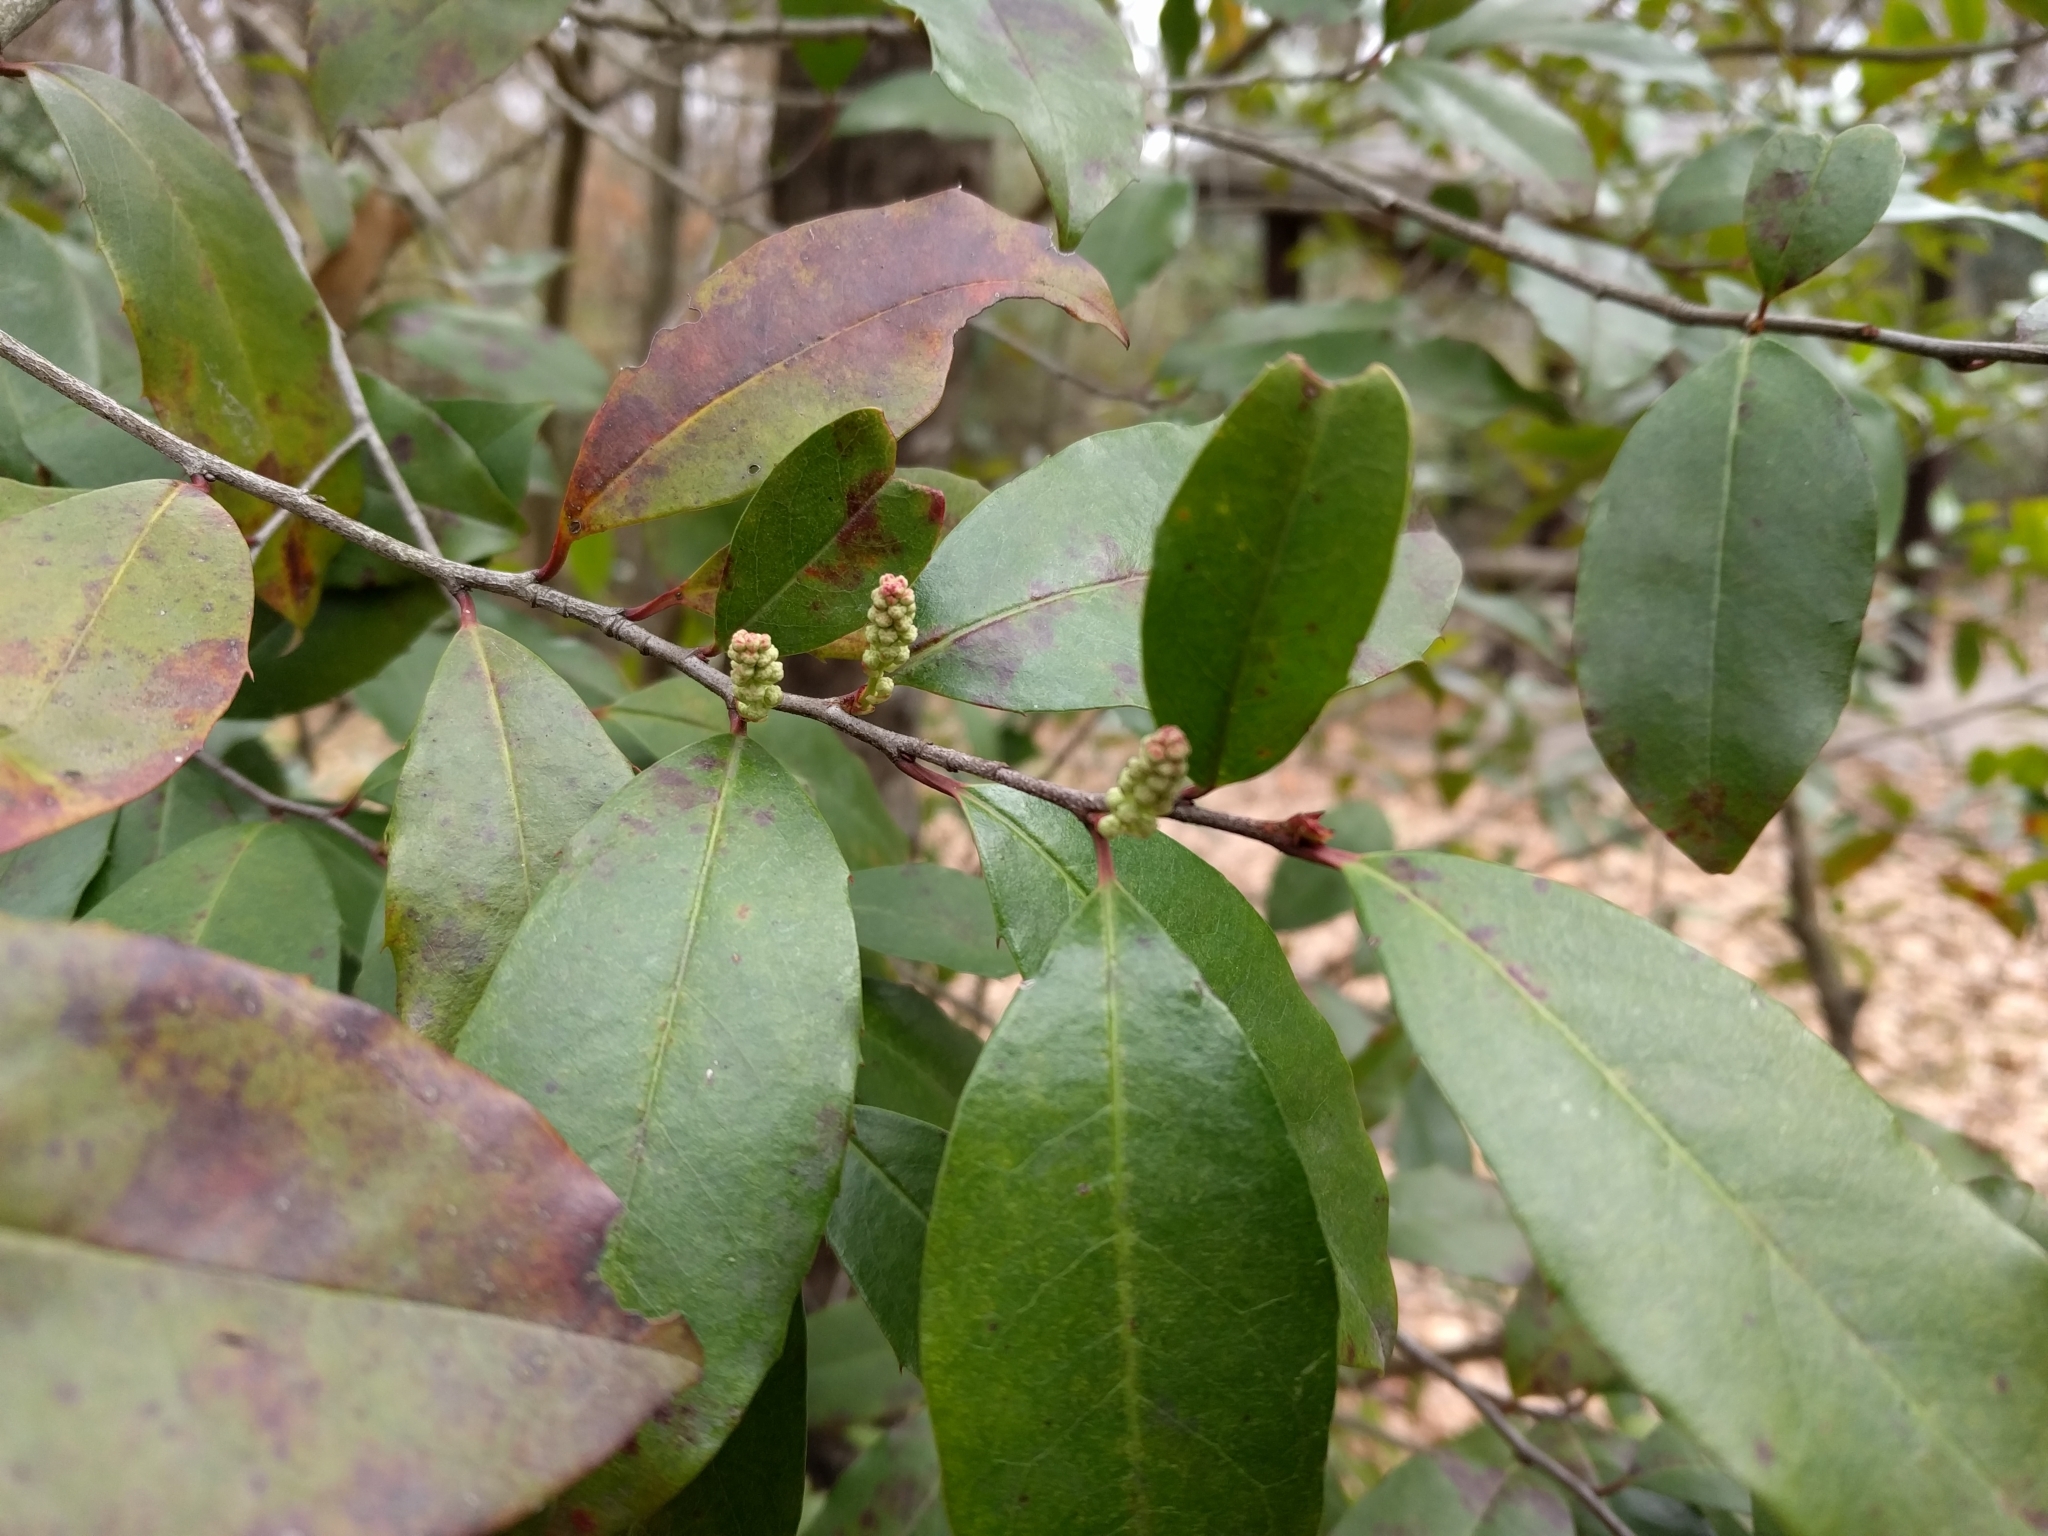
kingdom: Plantae
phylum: Tracheophyta
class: Magnoliopsida
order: Rosales
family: Rosaceae
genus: Prunus
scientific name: Prunus caroliniana
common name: Carolina laurel cherry
